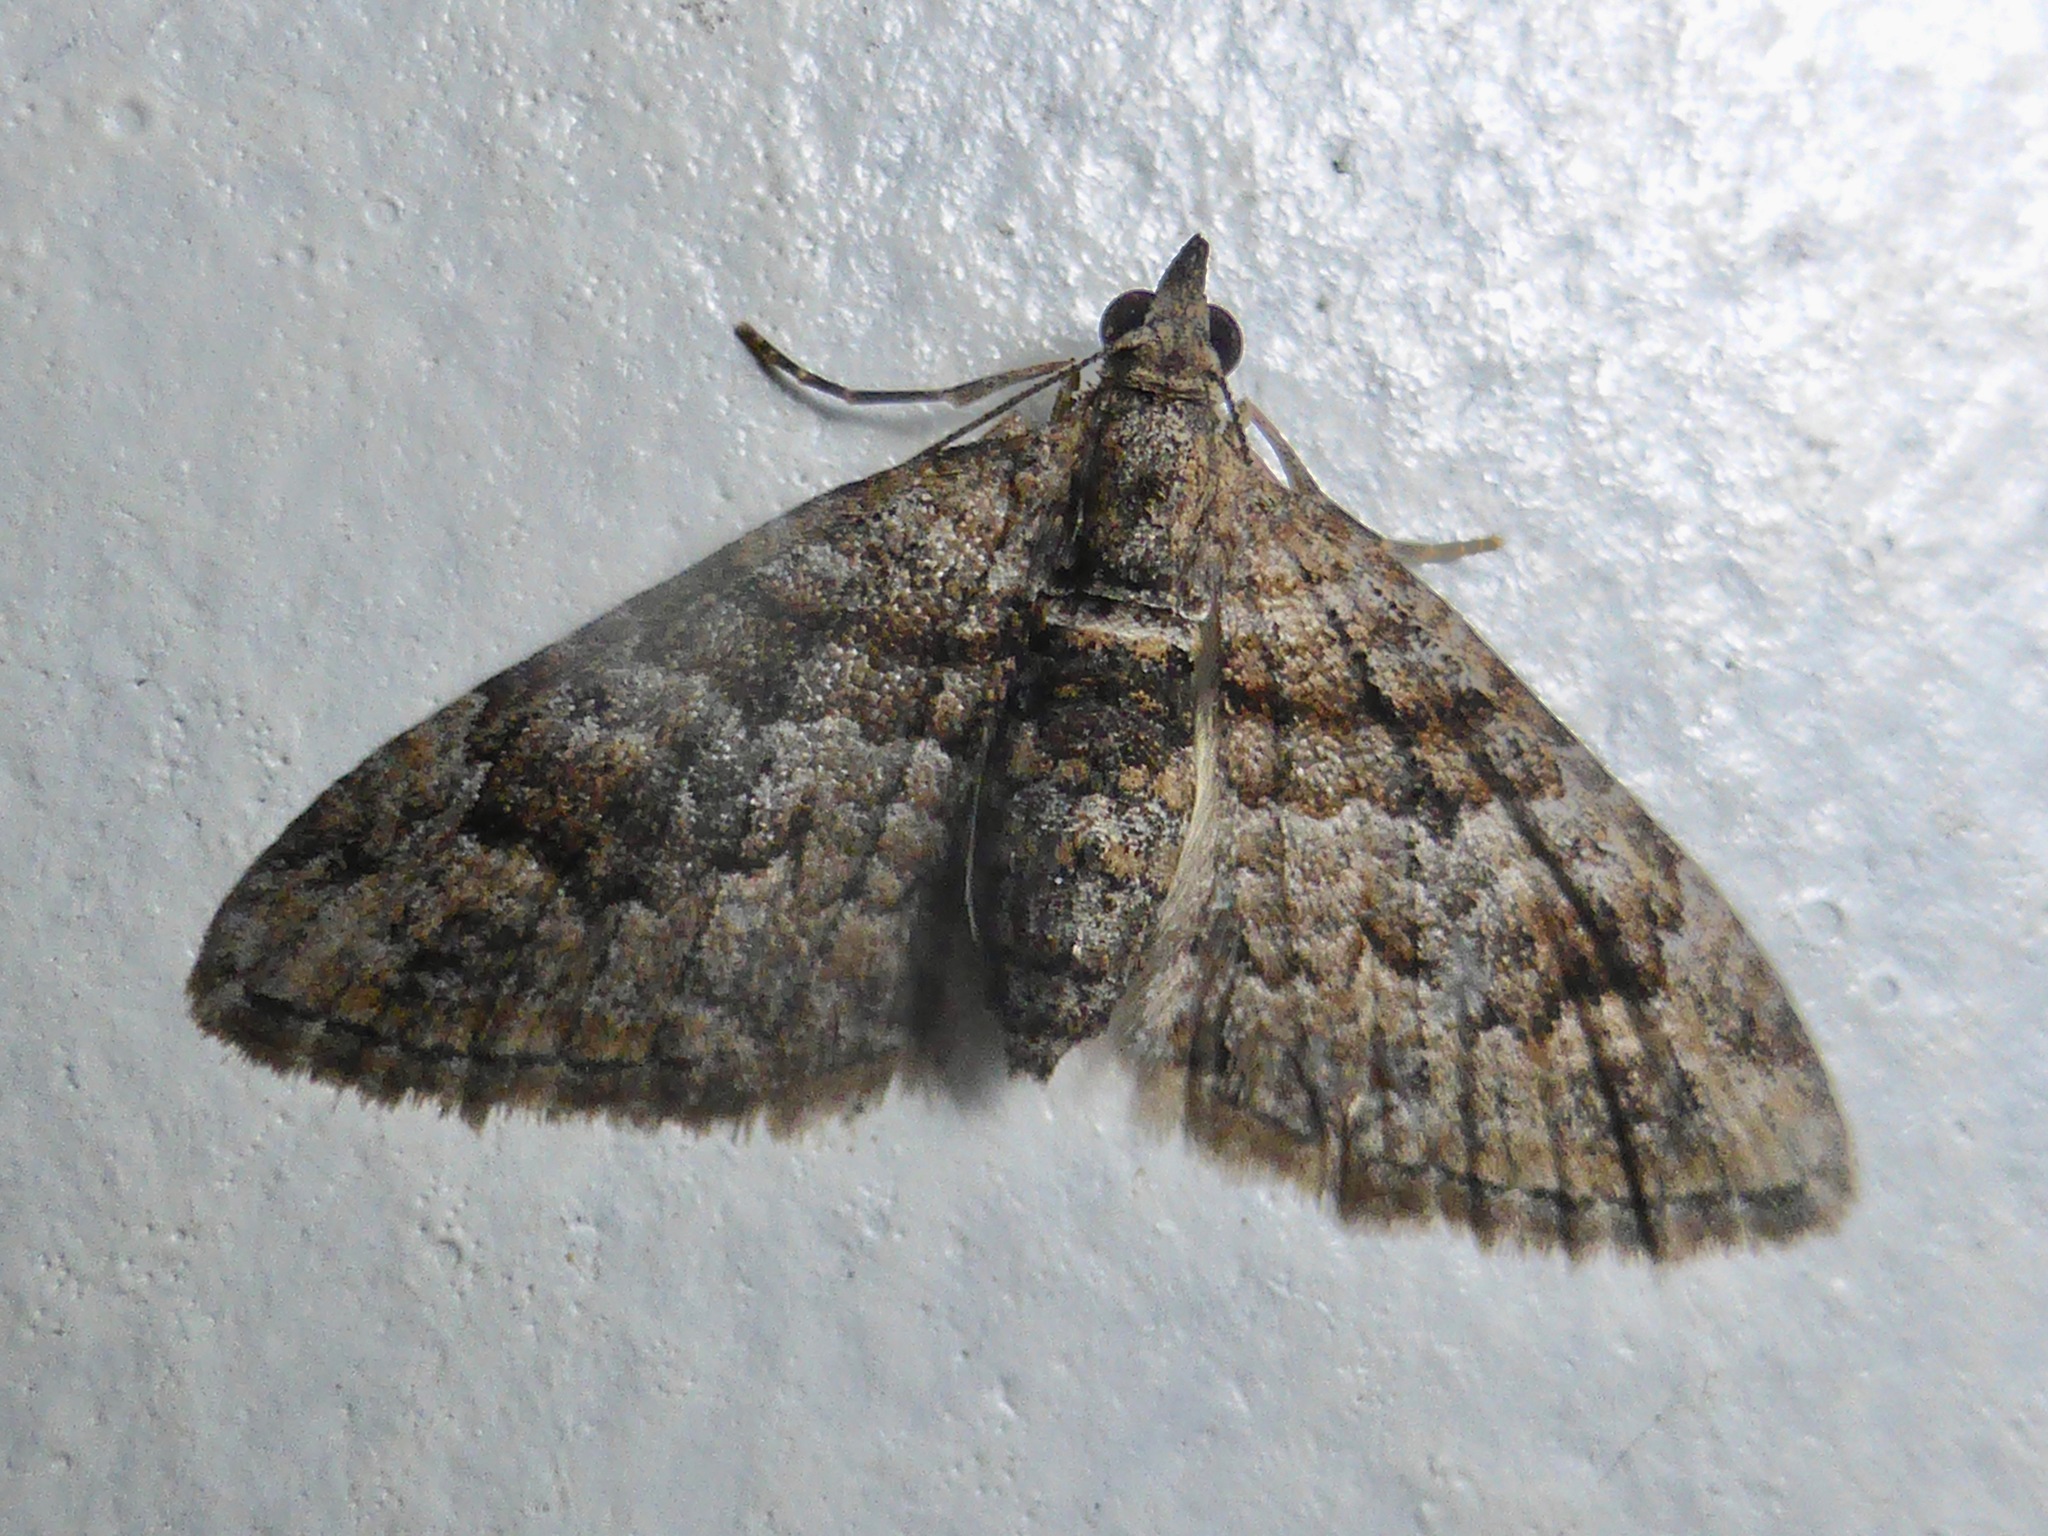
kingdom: Animalia
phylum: Arthropoda
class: Insecta
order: Lepidoptera
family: Geometridae
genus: Phrissogonus
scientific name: Phrissogonus laticostata
